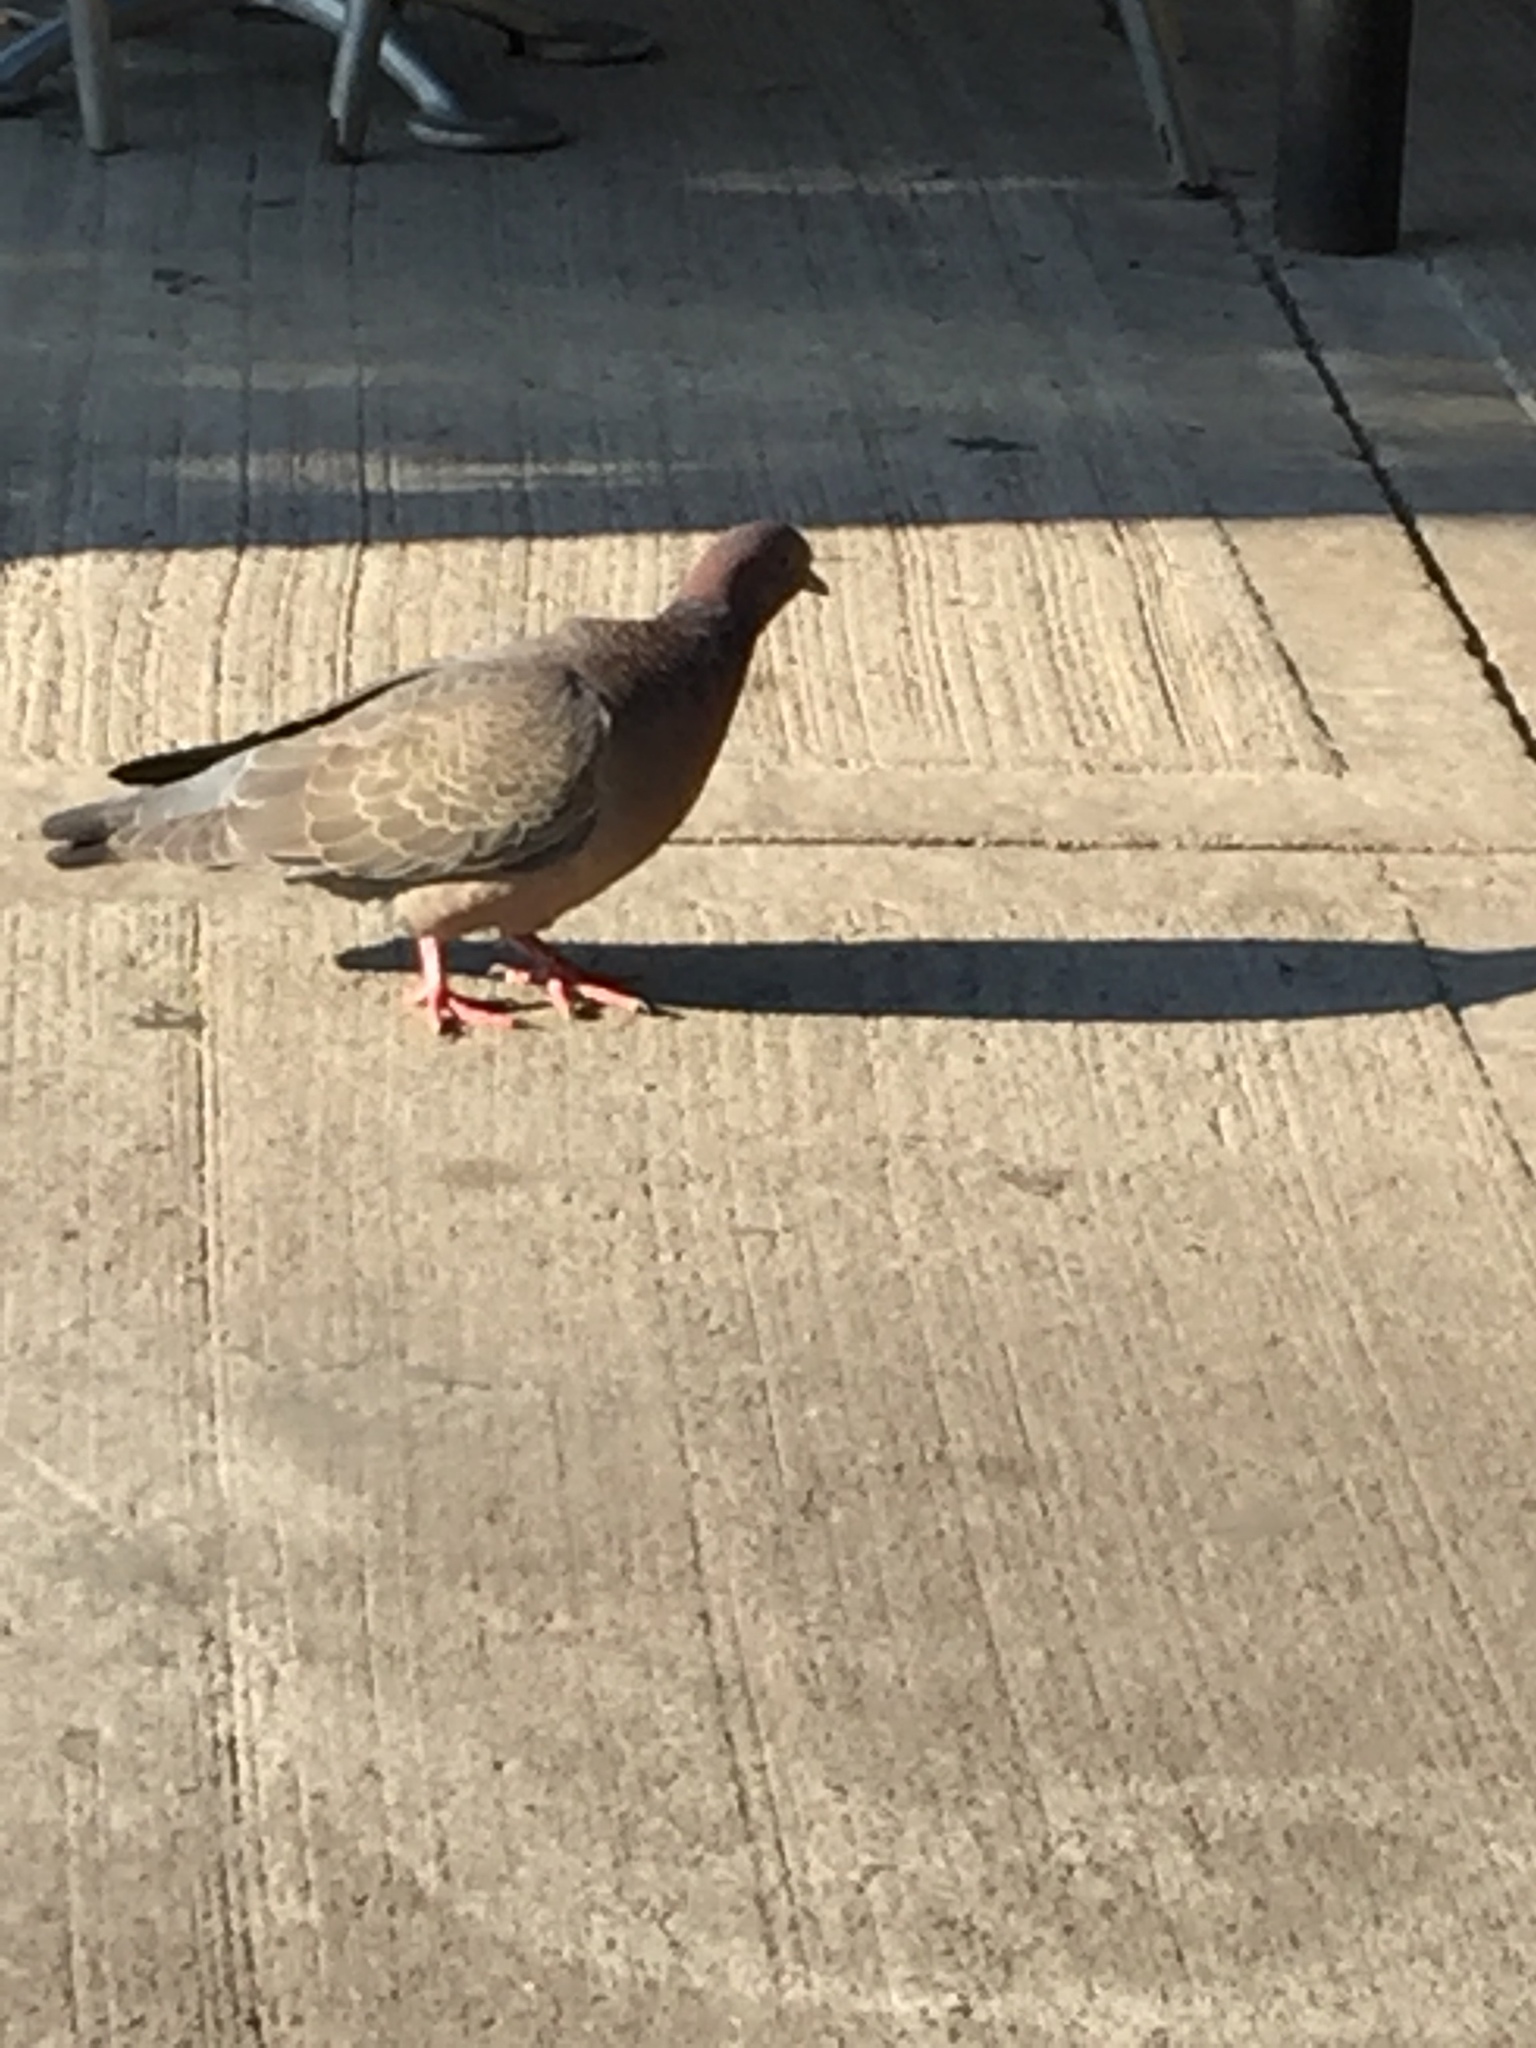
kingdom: Animalia
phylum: Chordata
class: Aves
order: Columbiformes
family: Columbidae
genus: Patagioenas
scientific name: Patagioenas picazuro
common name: Picazuro pigeon
